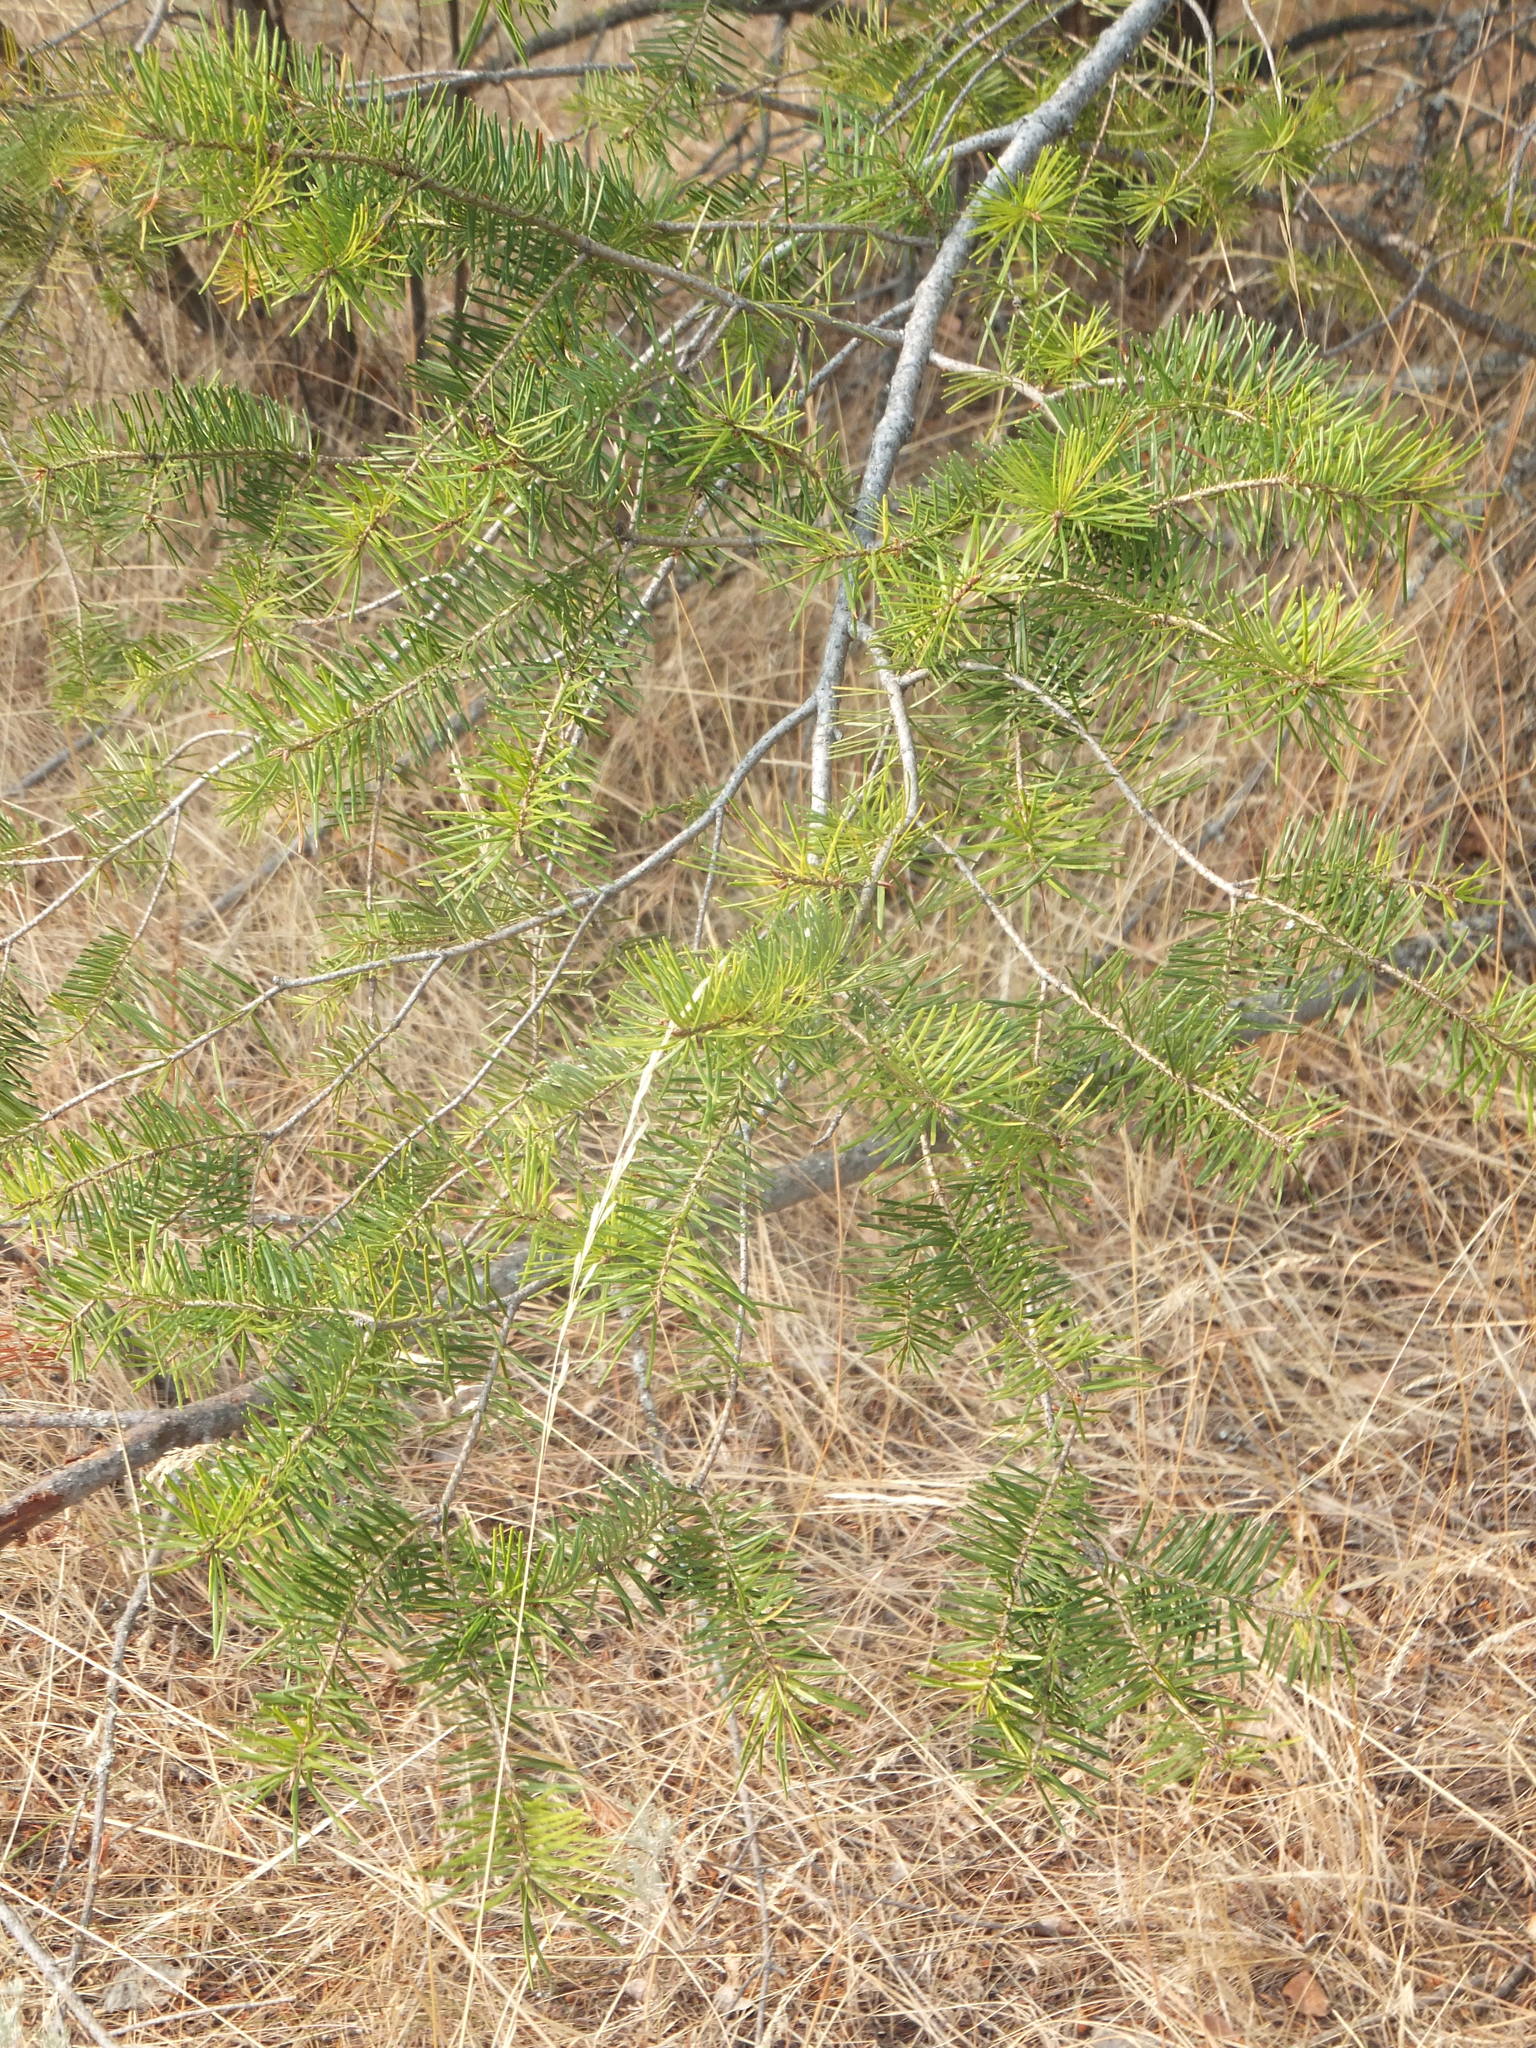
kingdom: Plantae
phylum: Tracheophyta
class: Pinopsida
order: Pinales
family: Pinaceae
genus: Pseudotsuga
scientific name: Pseudotsuga menziesii
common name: Douglas fir
